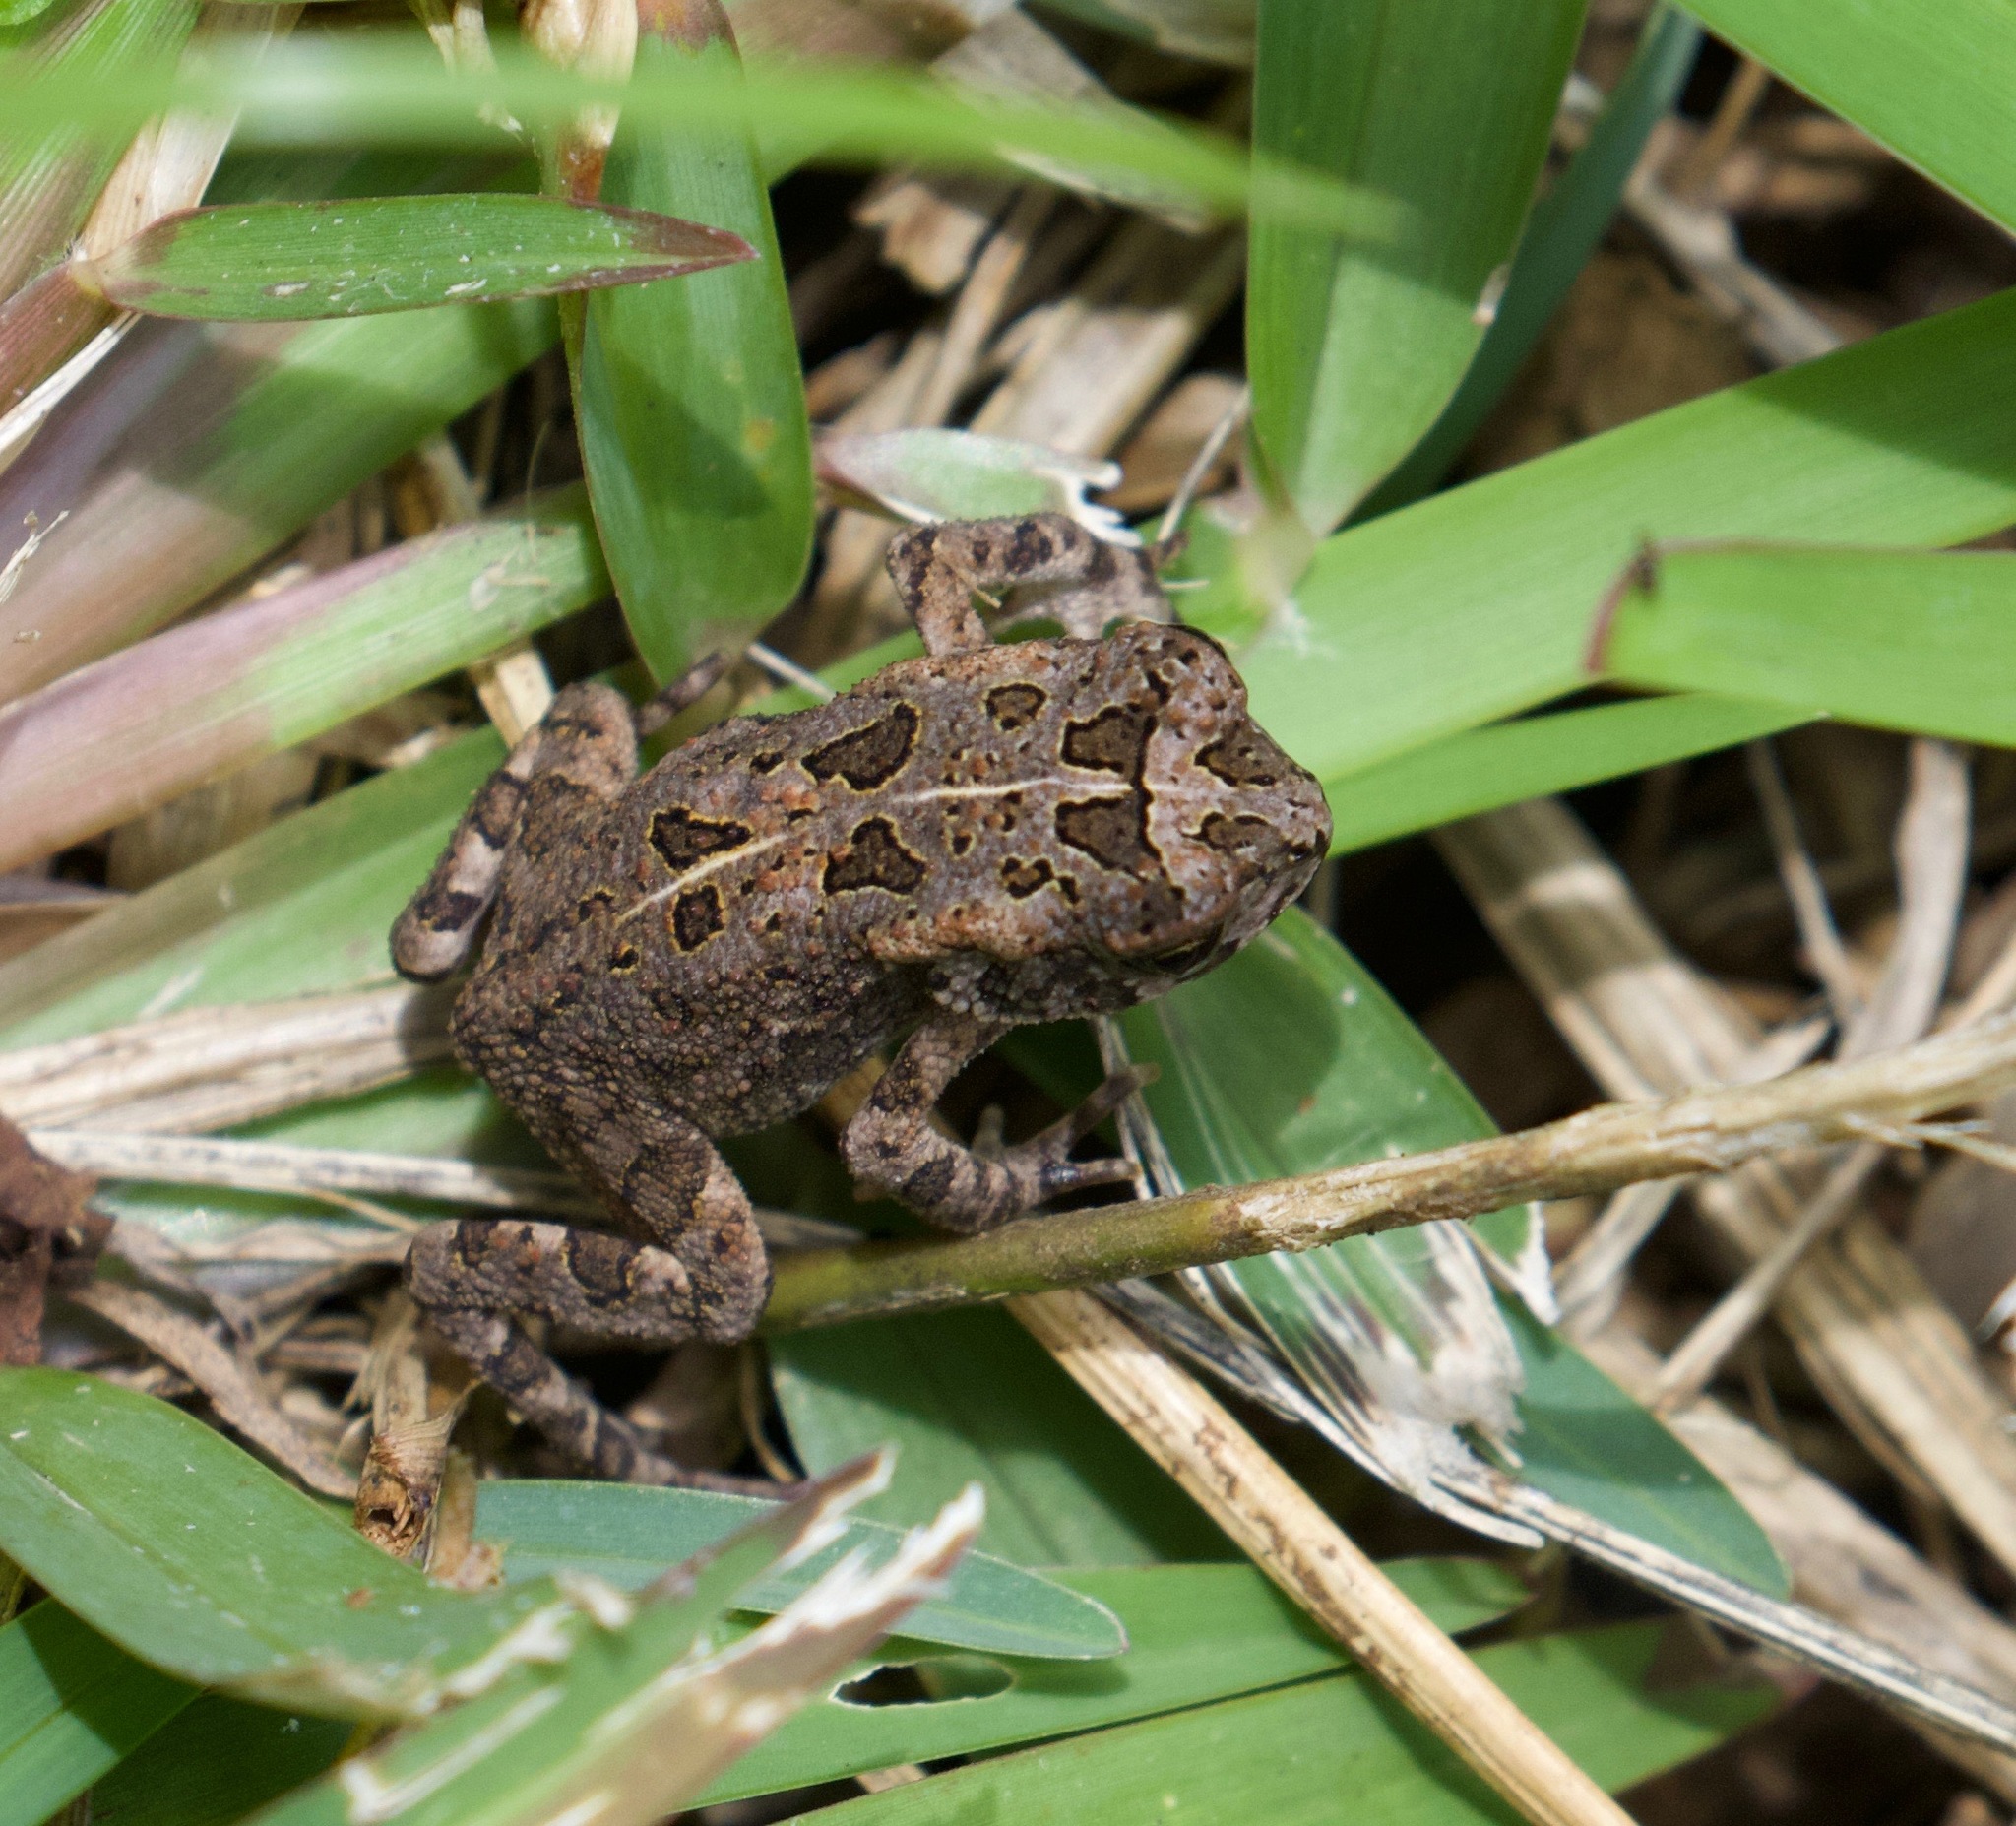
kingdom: Animalia
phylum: Chordata
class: Amphibia
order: Anura
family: Bufonidae
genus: Sclerophrys
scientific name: Sclerophrys gutturalis
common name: African common toad
